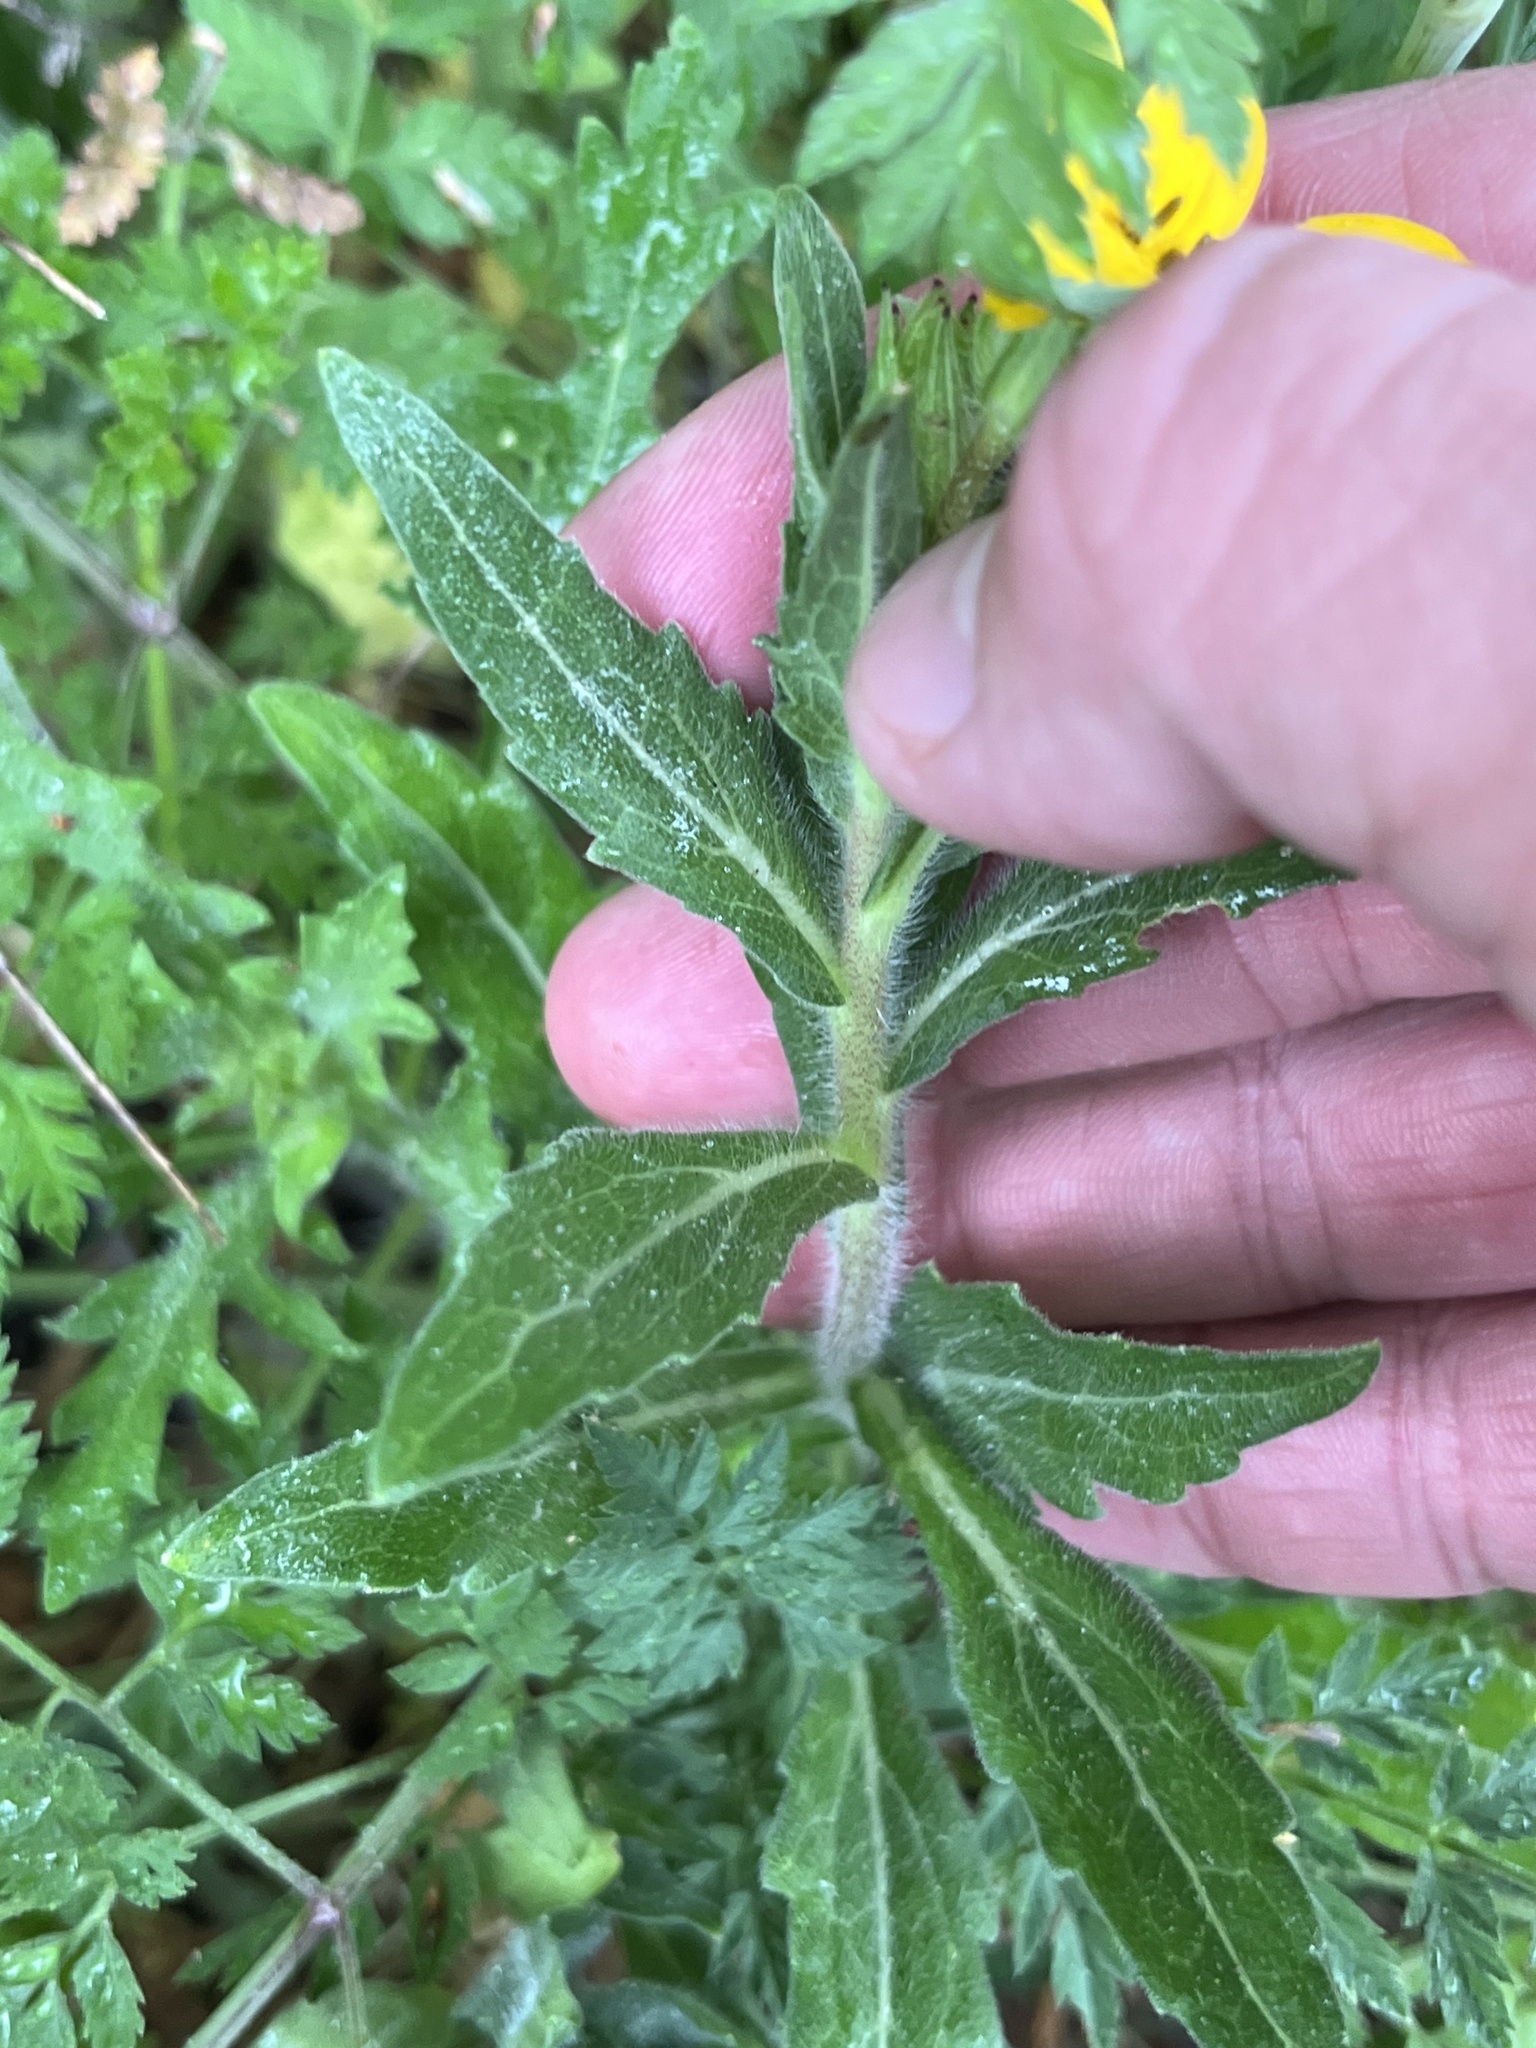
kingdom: Plantae
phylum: Tracheophyta
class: Magnoliopsida
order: Asterales
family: Asteraceae
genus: Lindheimera
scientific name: Lindheimera texana
